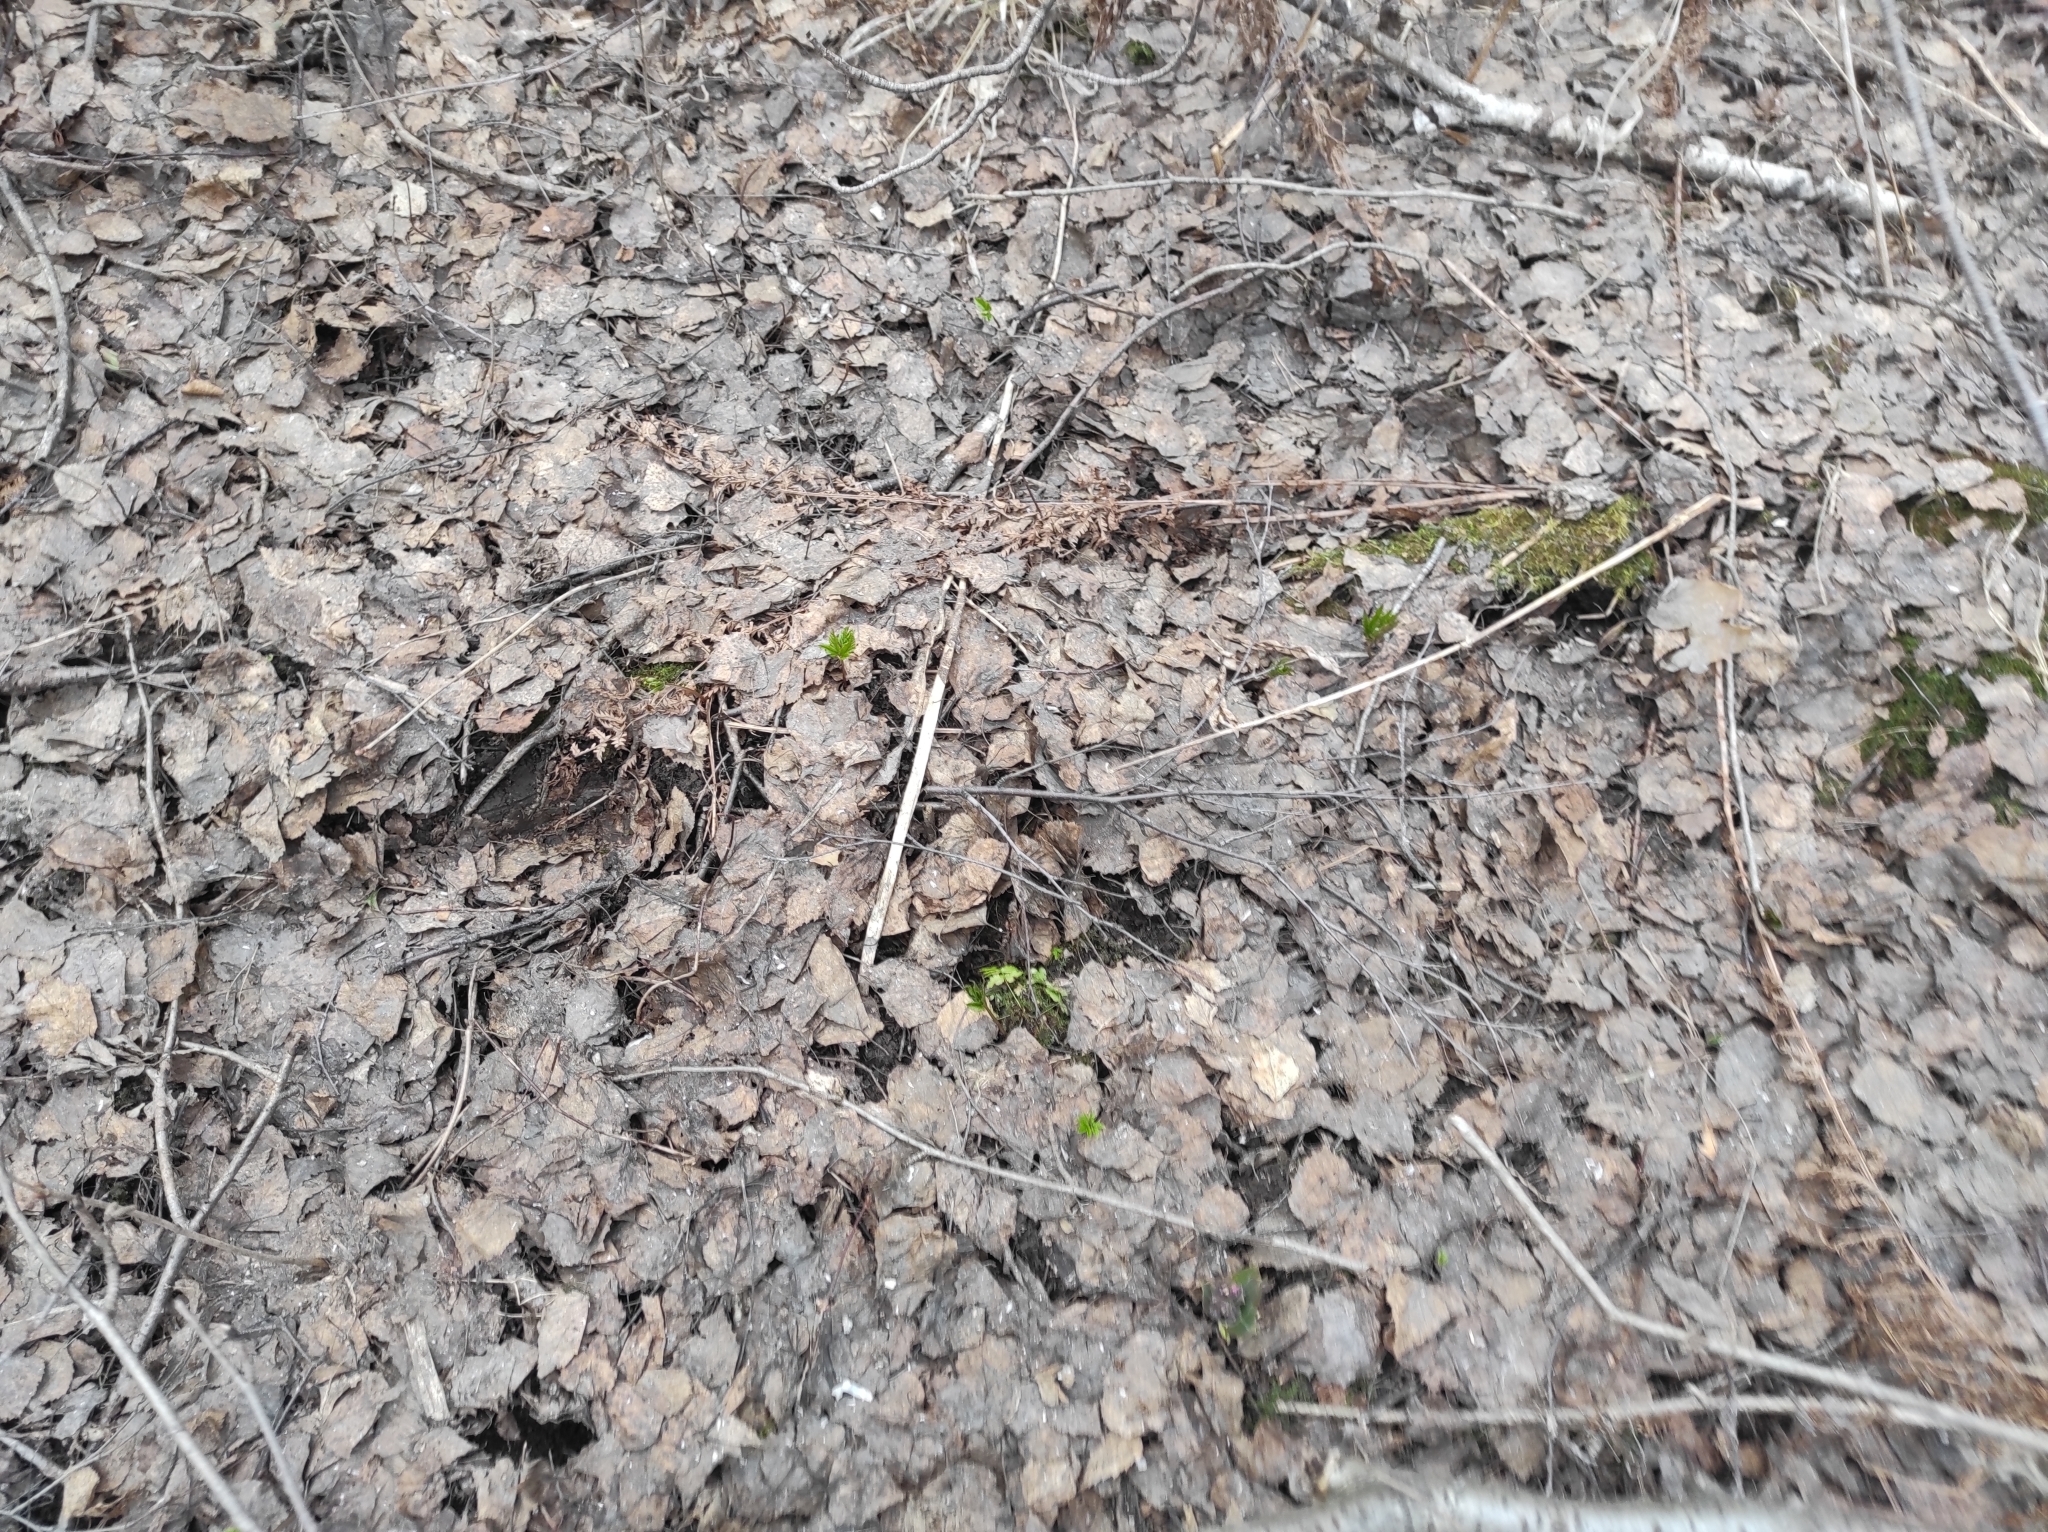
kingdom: Plantae
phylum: Tracheophyta
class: Polypodiopsida
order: Polypodiales
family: Dryopteridaceae
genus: Dryopteris
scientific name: Dryopteris carthusiana
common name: Narrow buckler-fern
